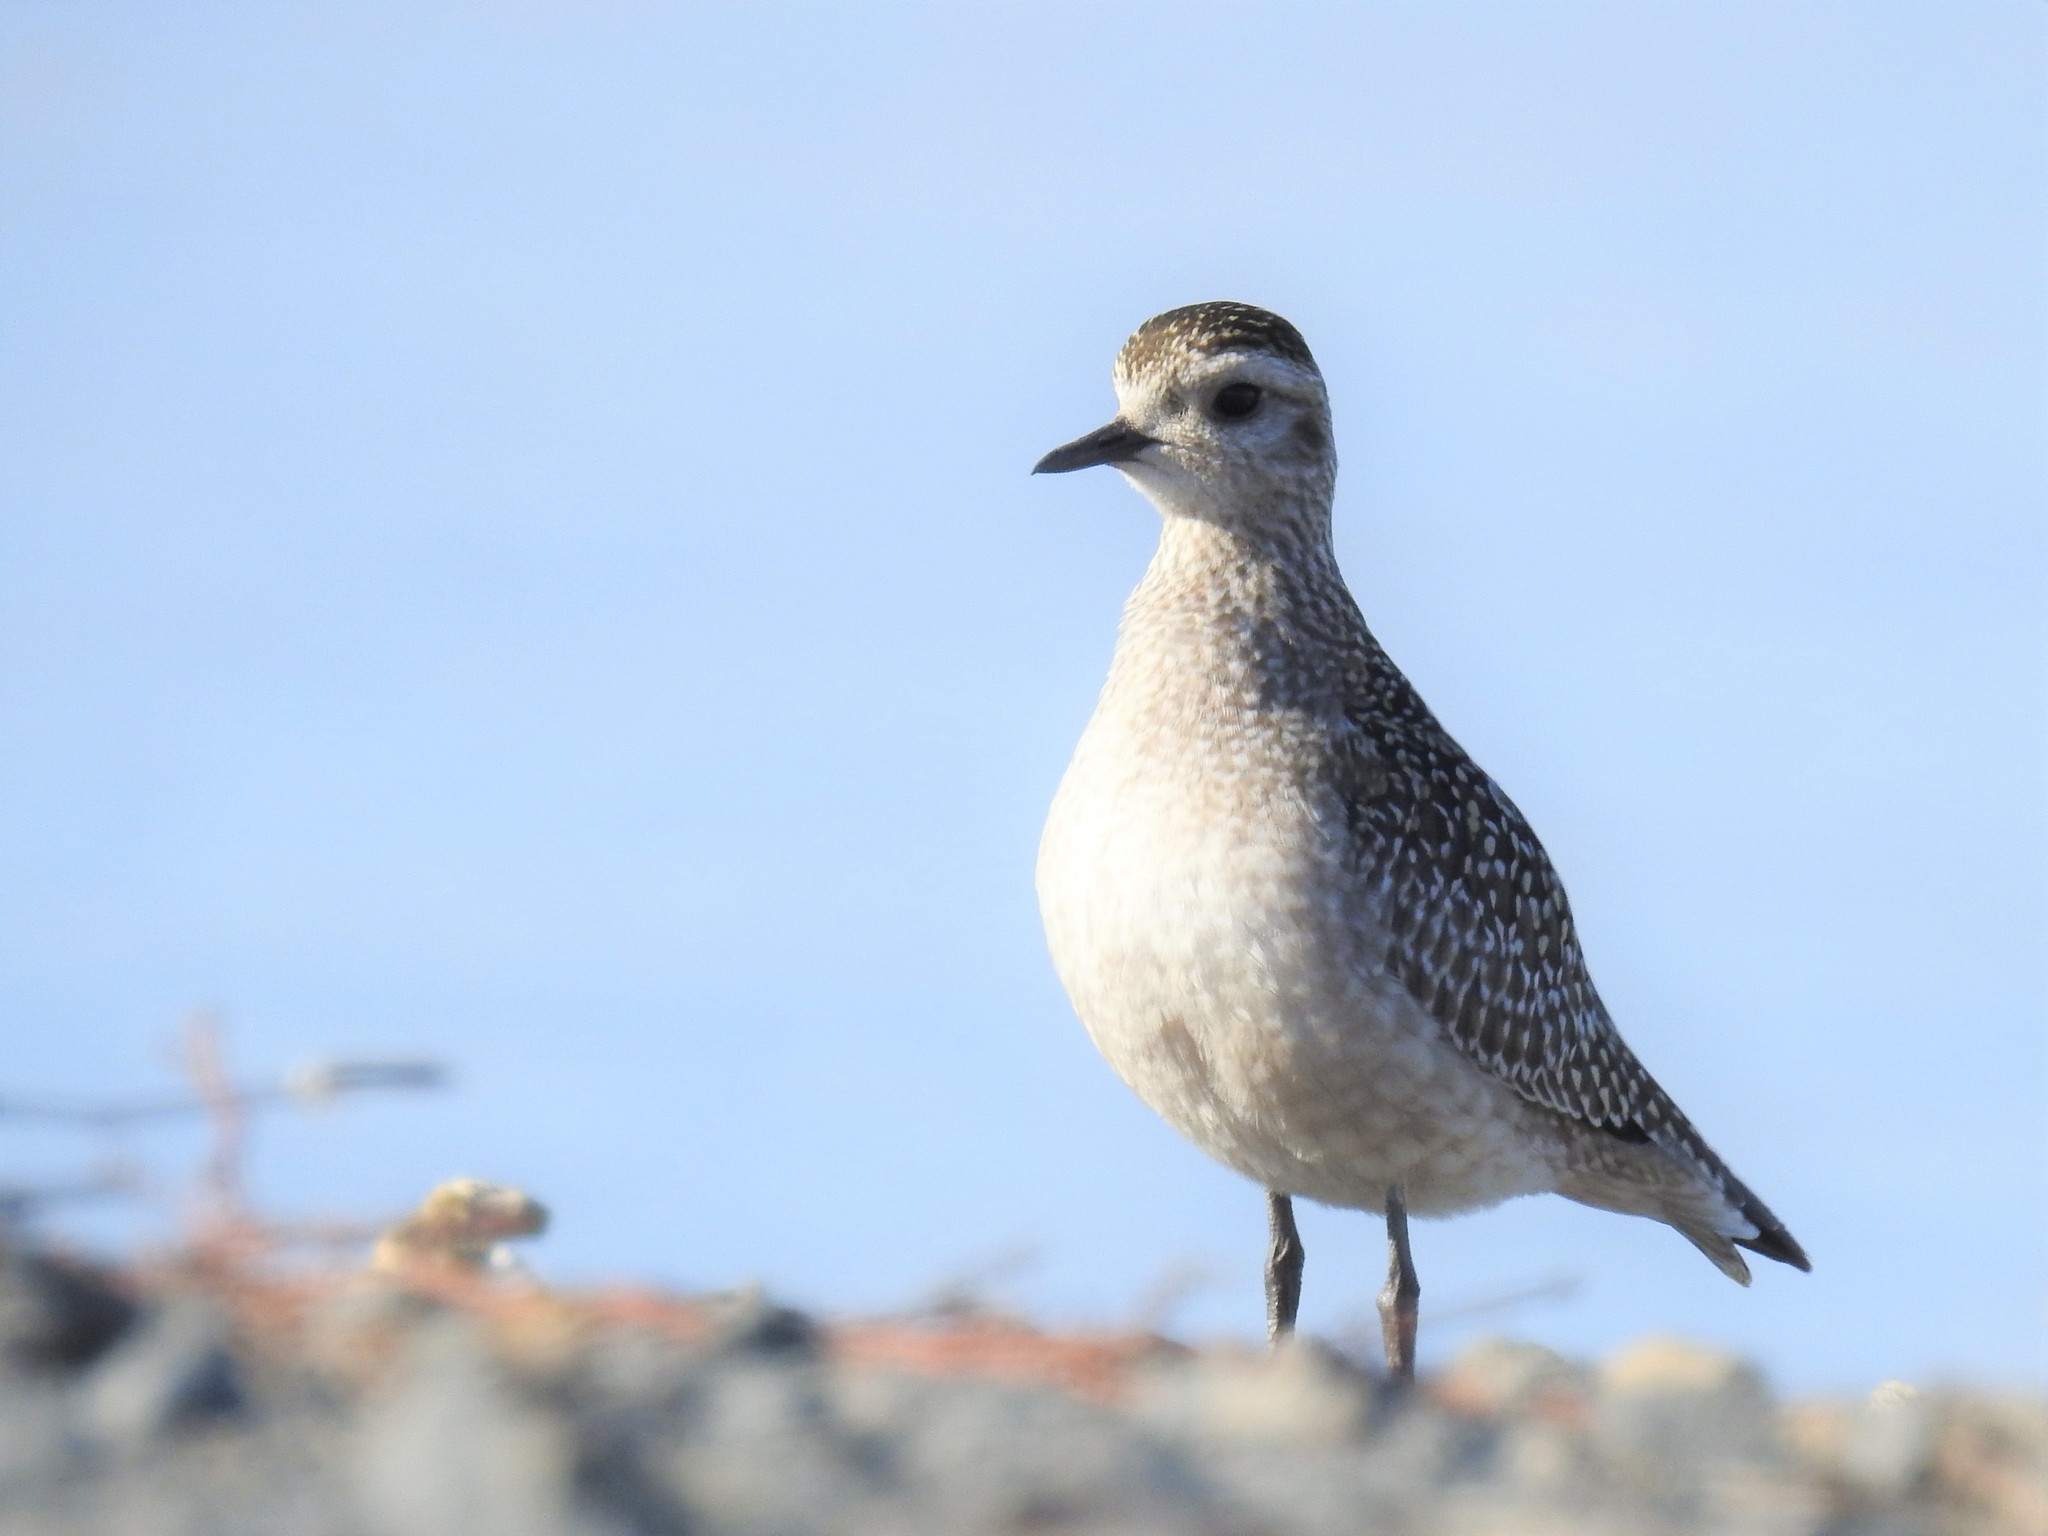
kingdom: Animalia
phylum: Chordata
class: Aves
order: Charadriiformes
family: Charadriidae
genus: Pluvialis
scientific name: Pluvialis dominica
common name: American golden plover
